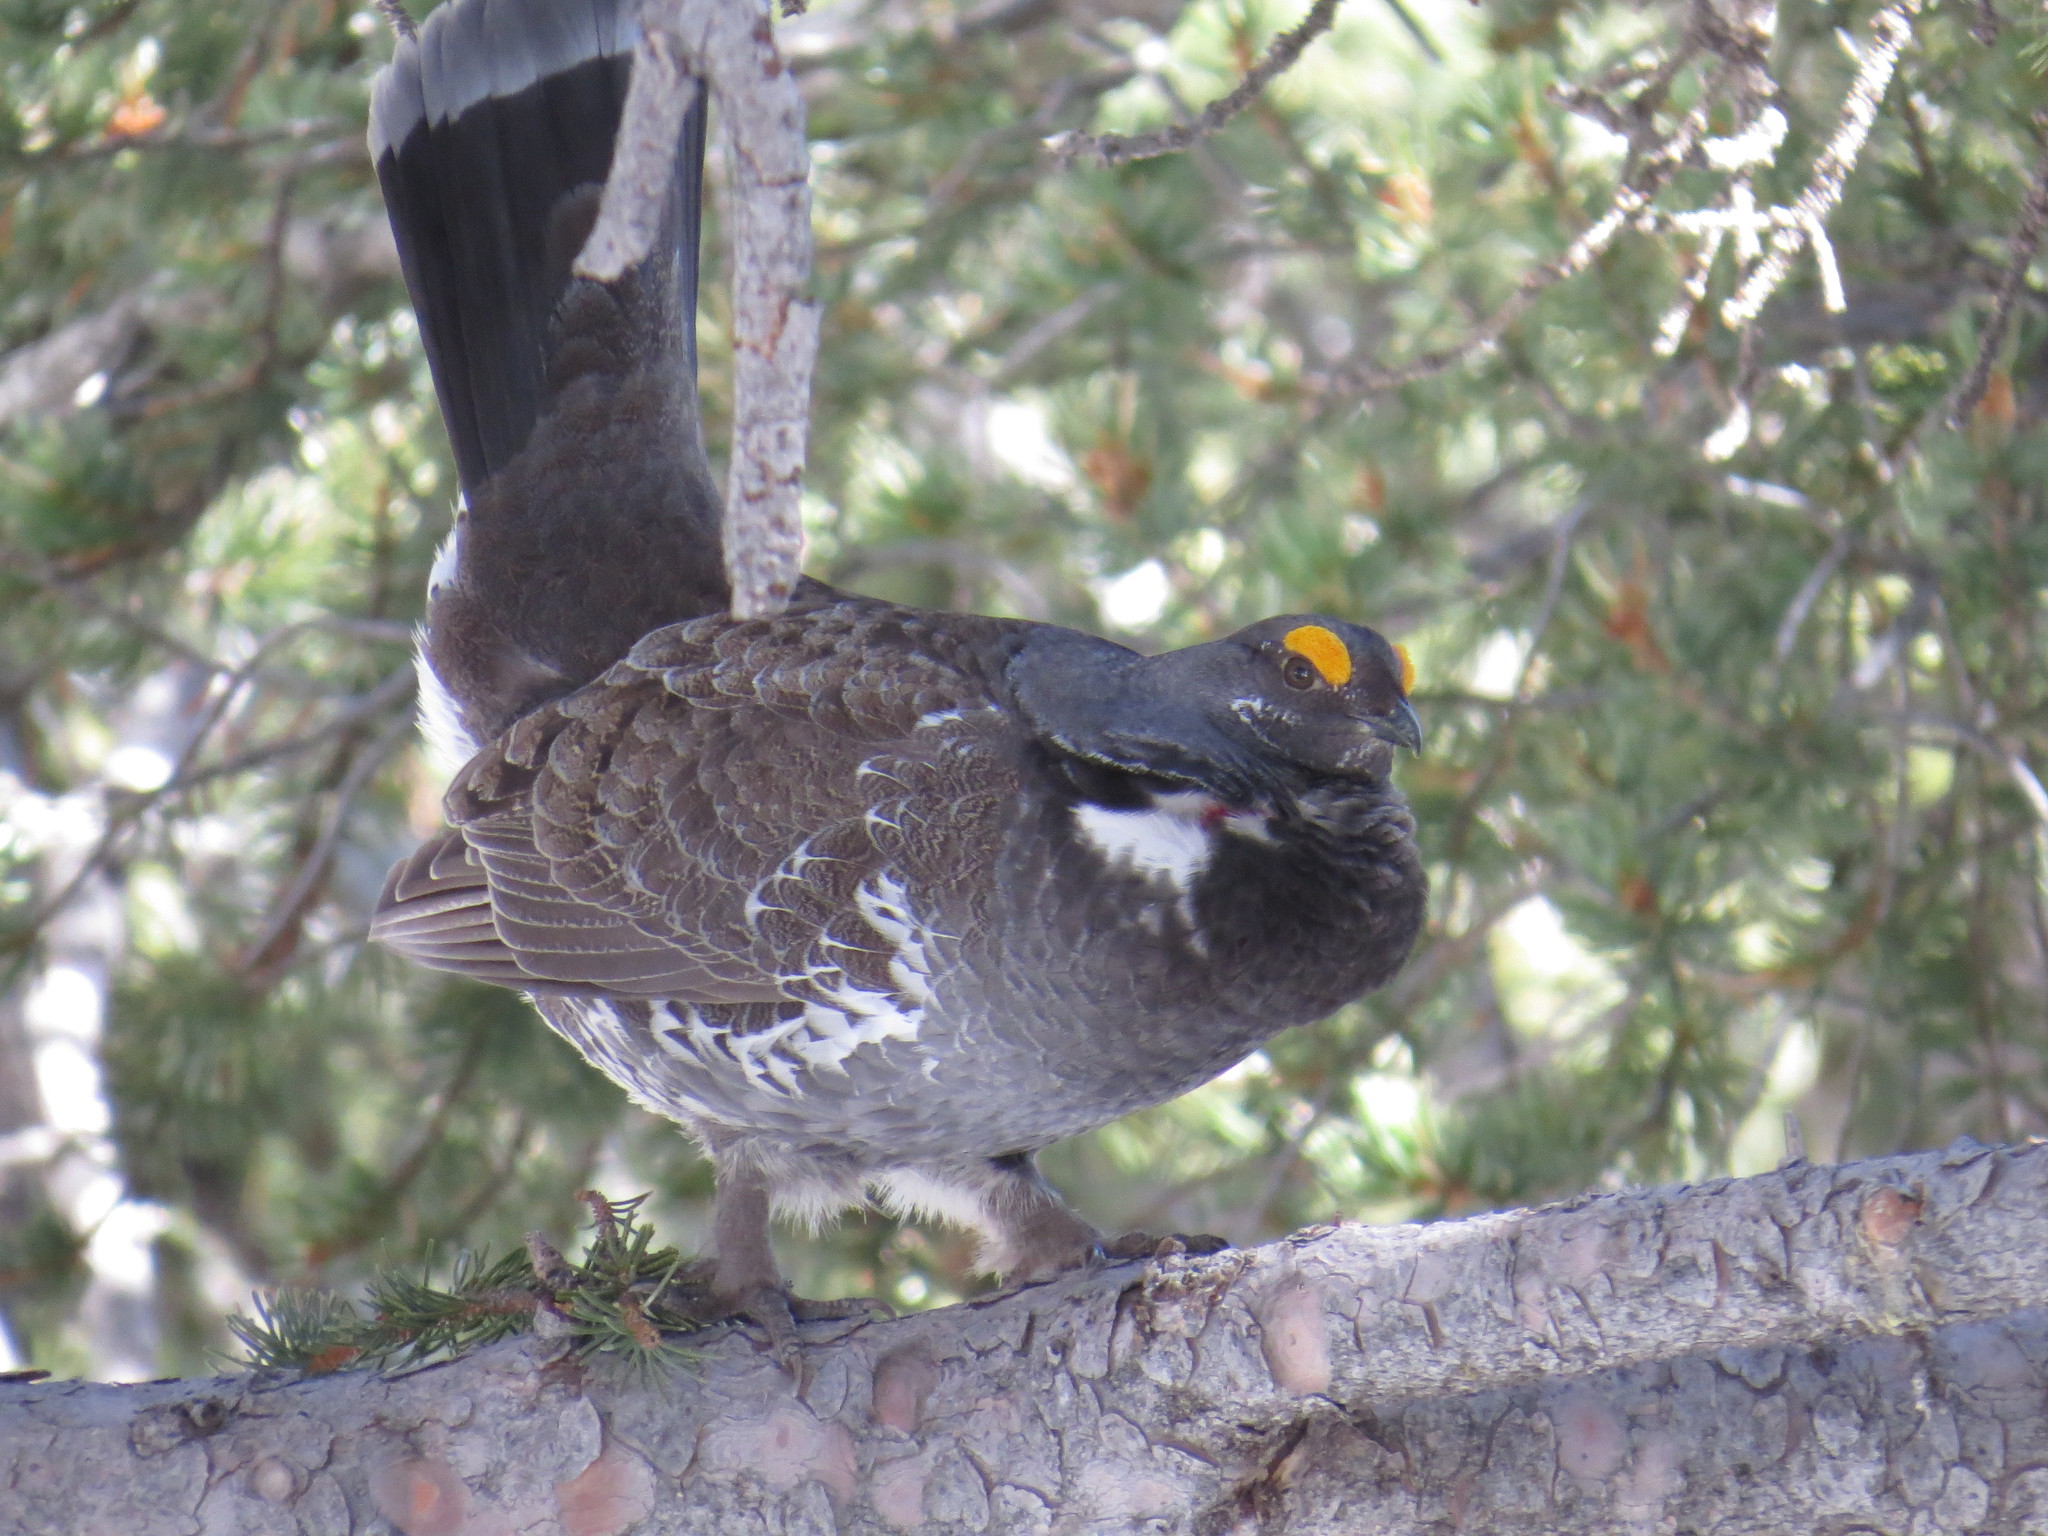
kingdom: Animalia
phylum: Chordata
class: Aves
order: Galliformes
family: Phasianidae
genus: Dendragapus
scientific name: Dendragapus obscurus
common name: Dusky grouse
